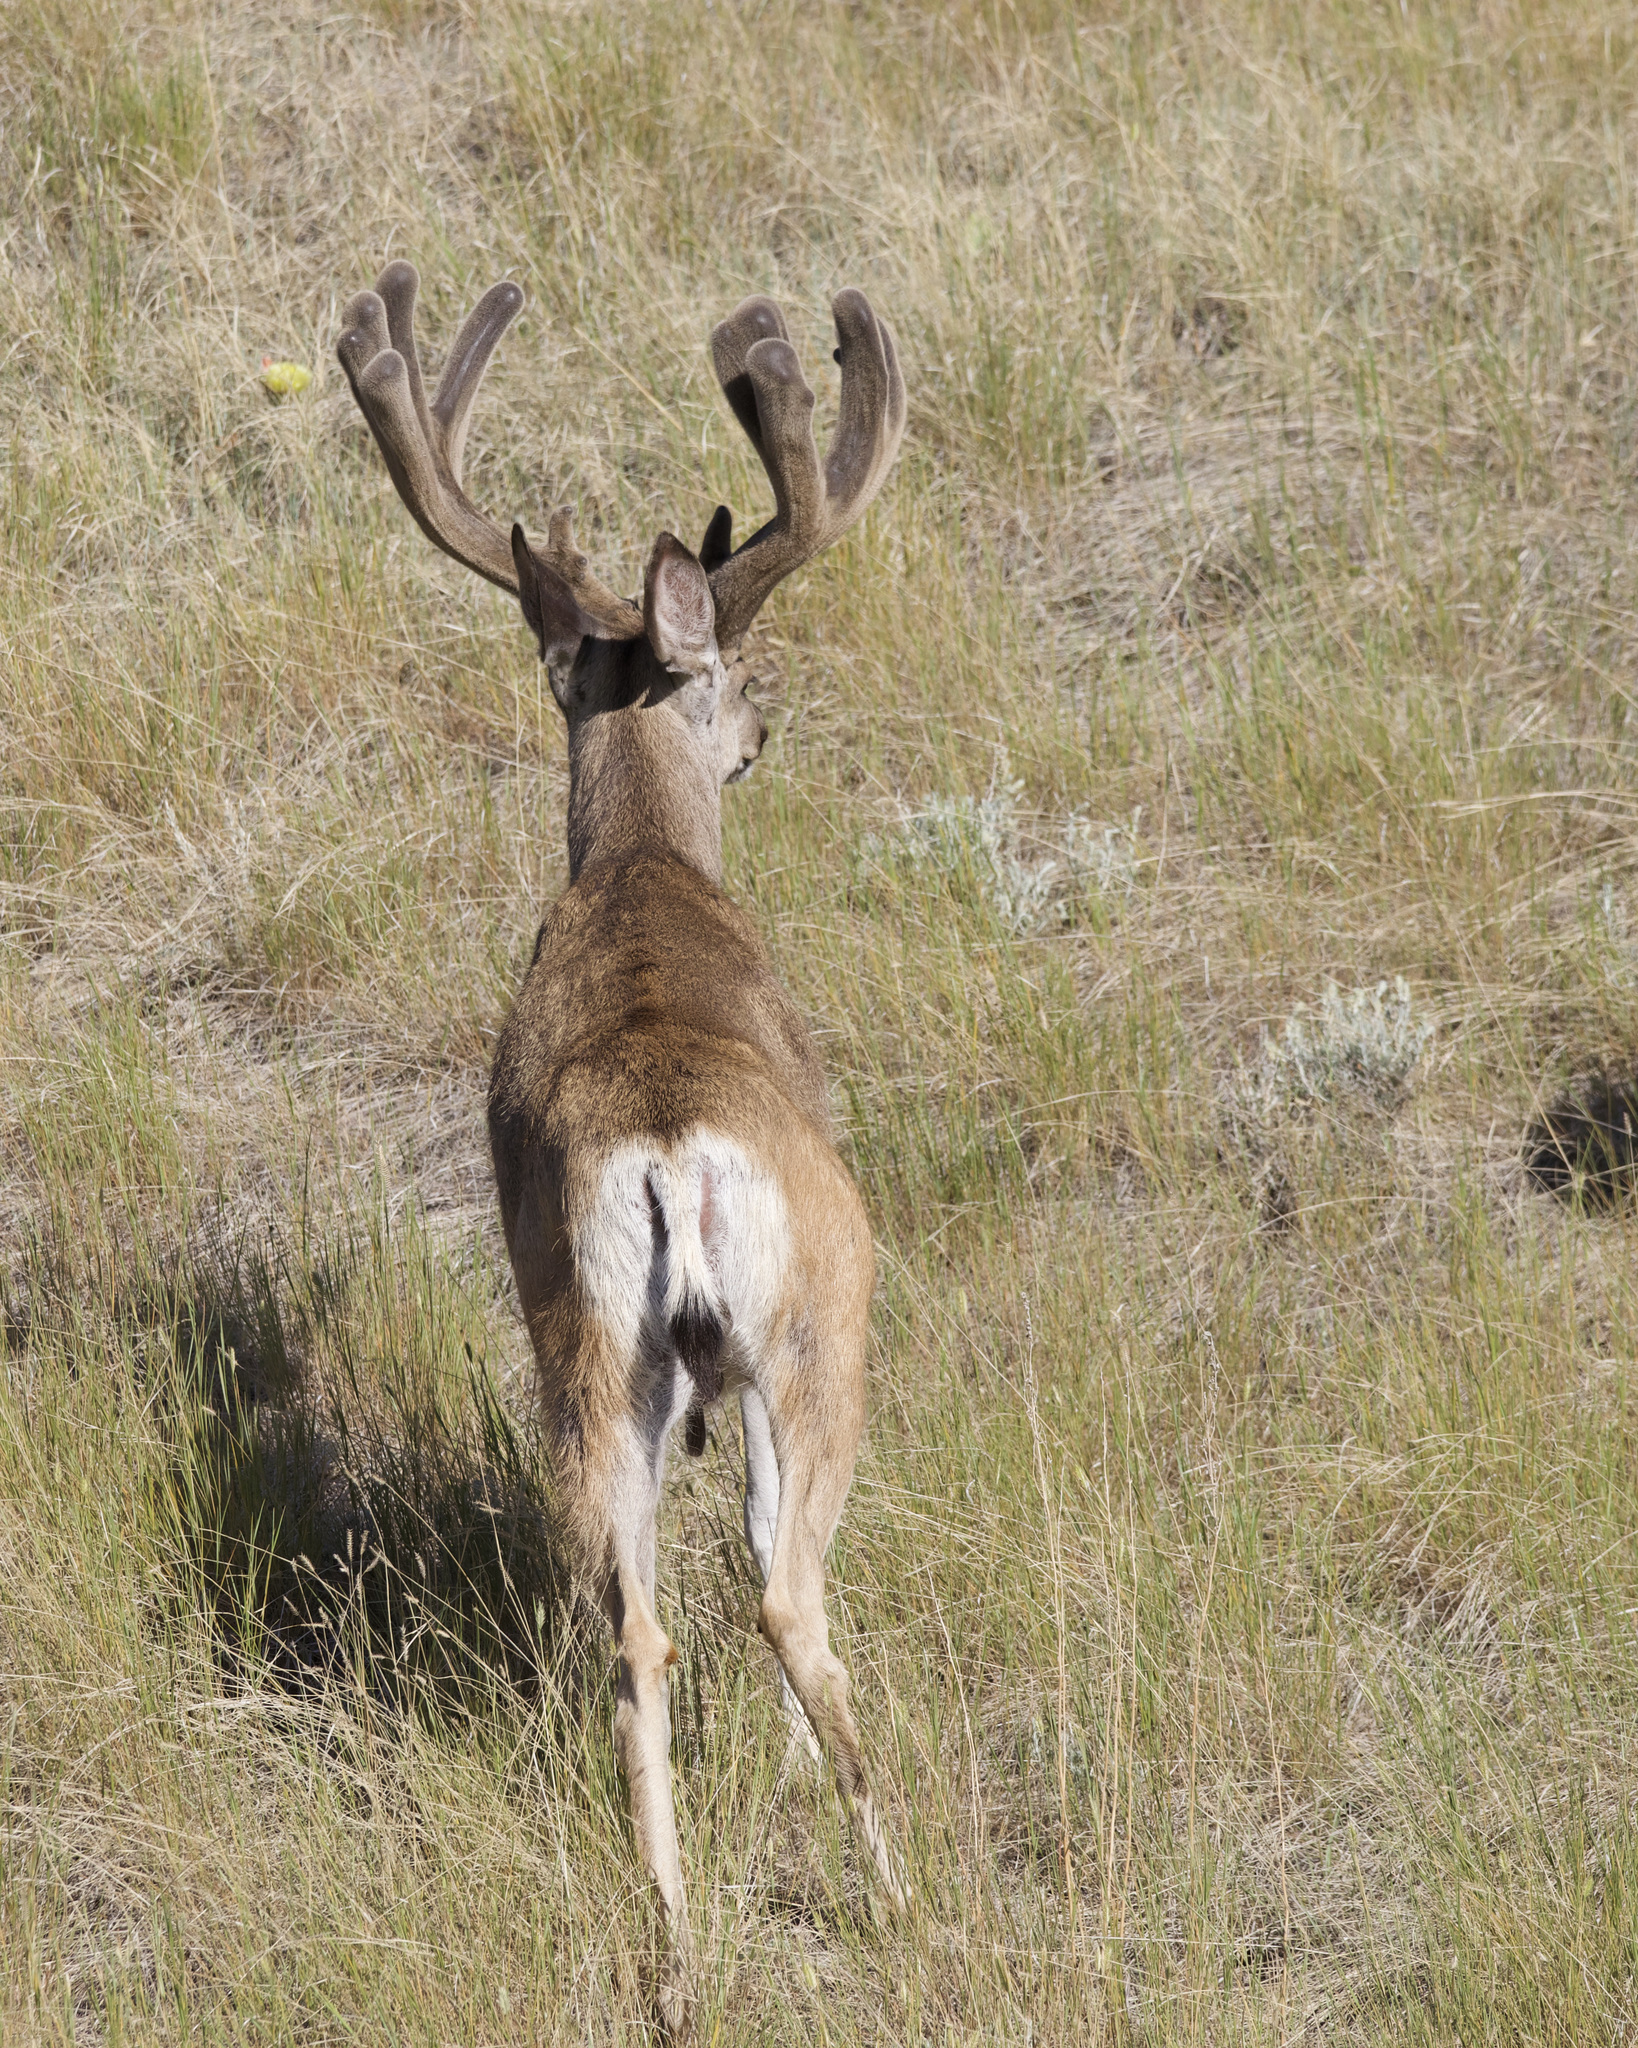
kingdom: Animalia
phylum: Chordata
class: Mammalia
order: Artiodactyla
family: Cervidae
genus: Odocoileus
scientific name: Odocoileus hemionus
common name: Mule deer
